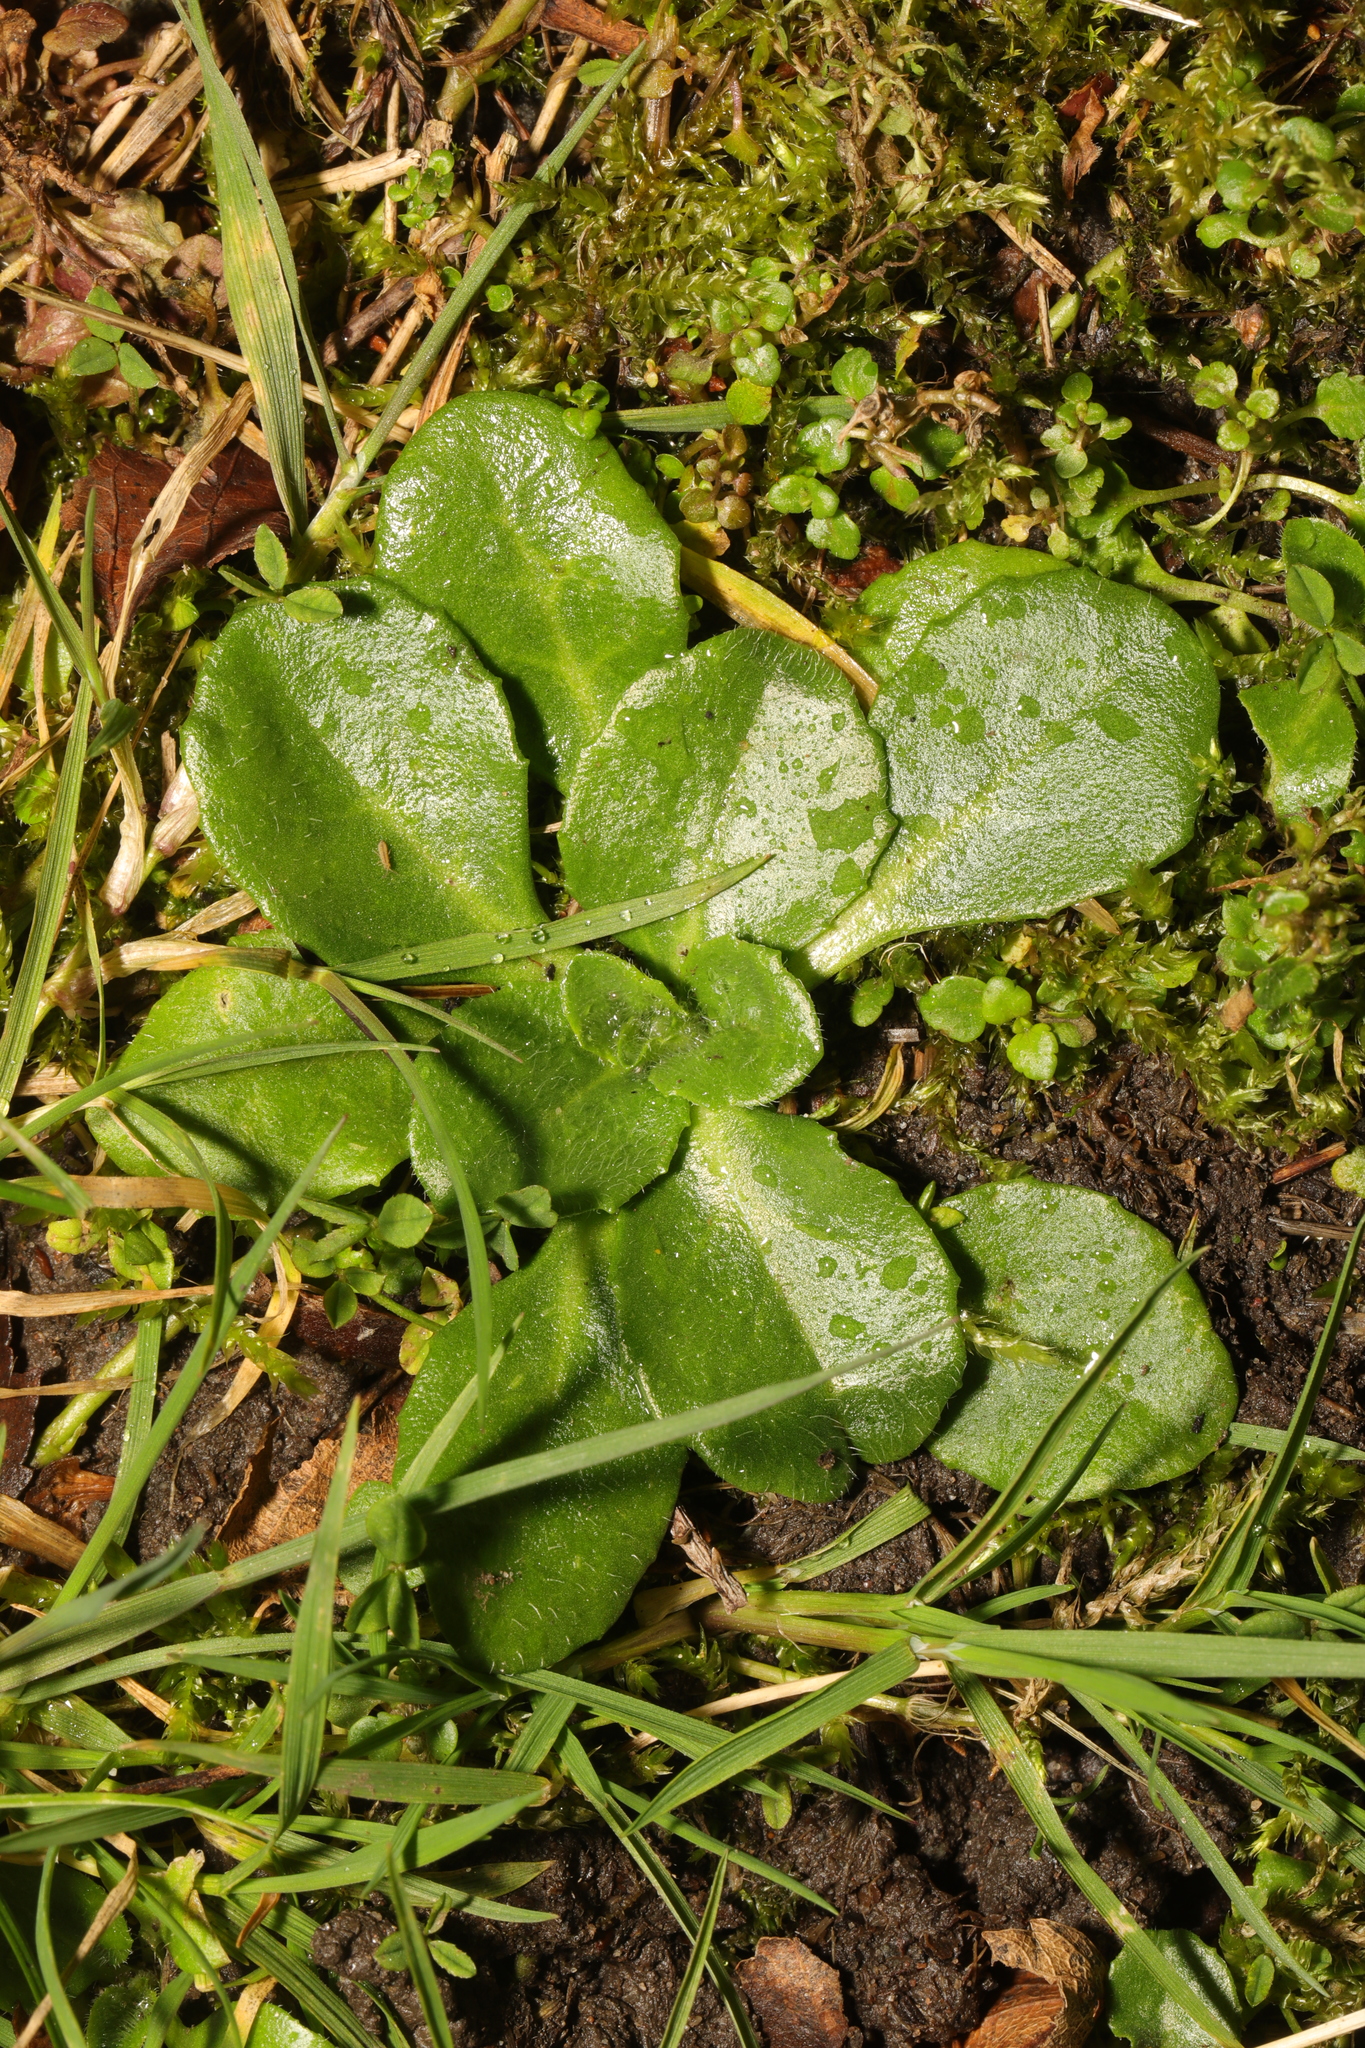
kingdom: Plantae
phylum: Tracheophyta
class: Magnoliopsida
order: Asterales
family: Asteraceae
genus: Bellis
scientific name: Bellis perennis
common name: Lawndaisy
